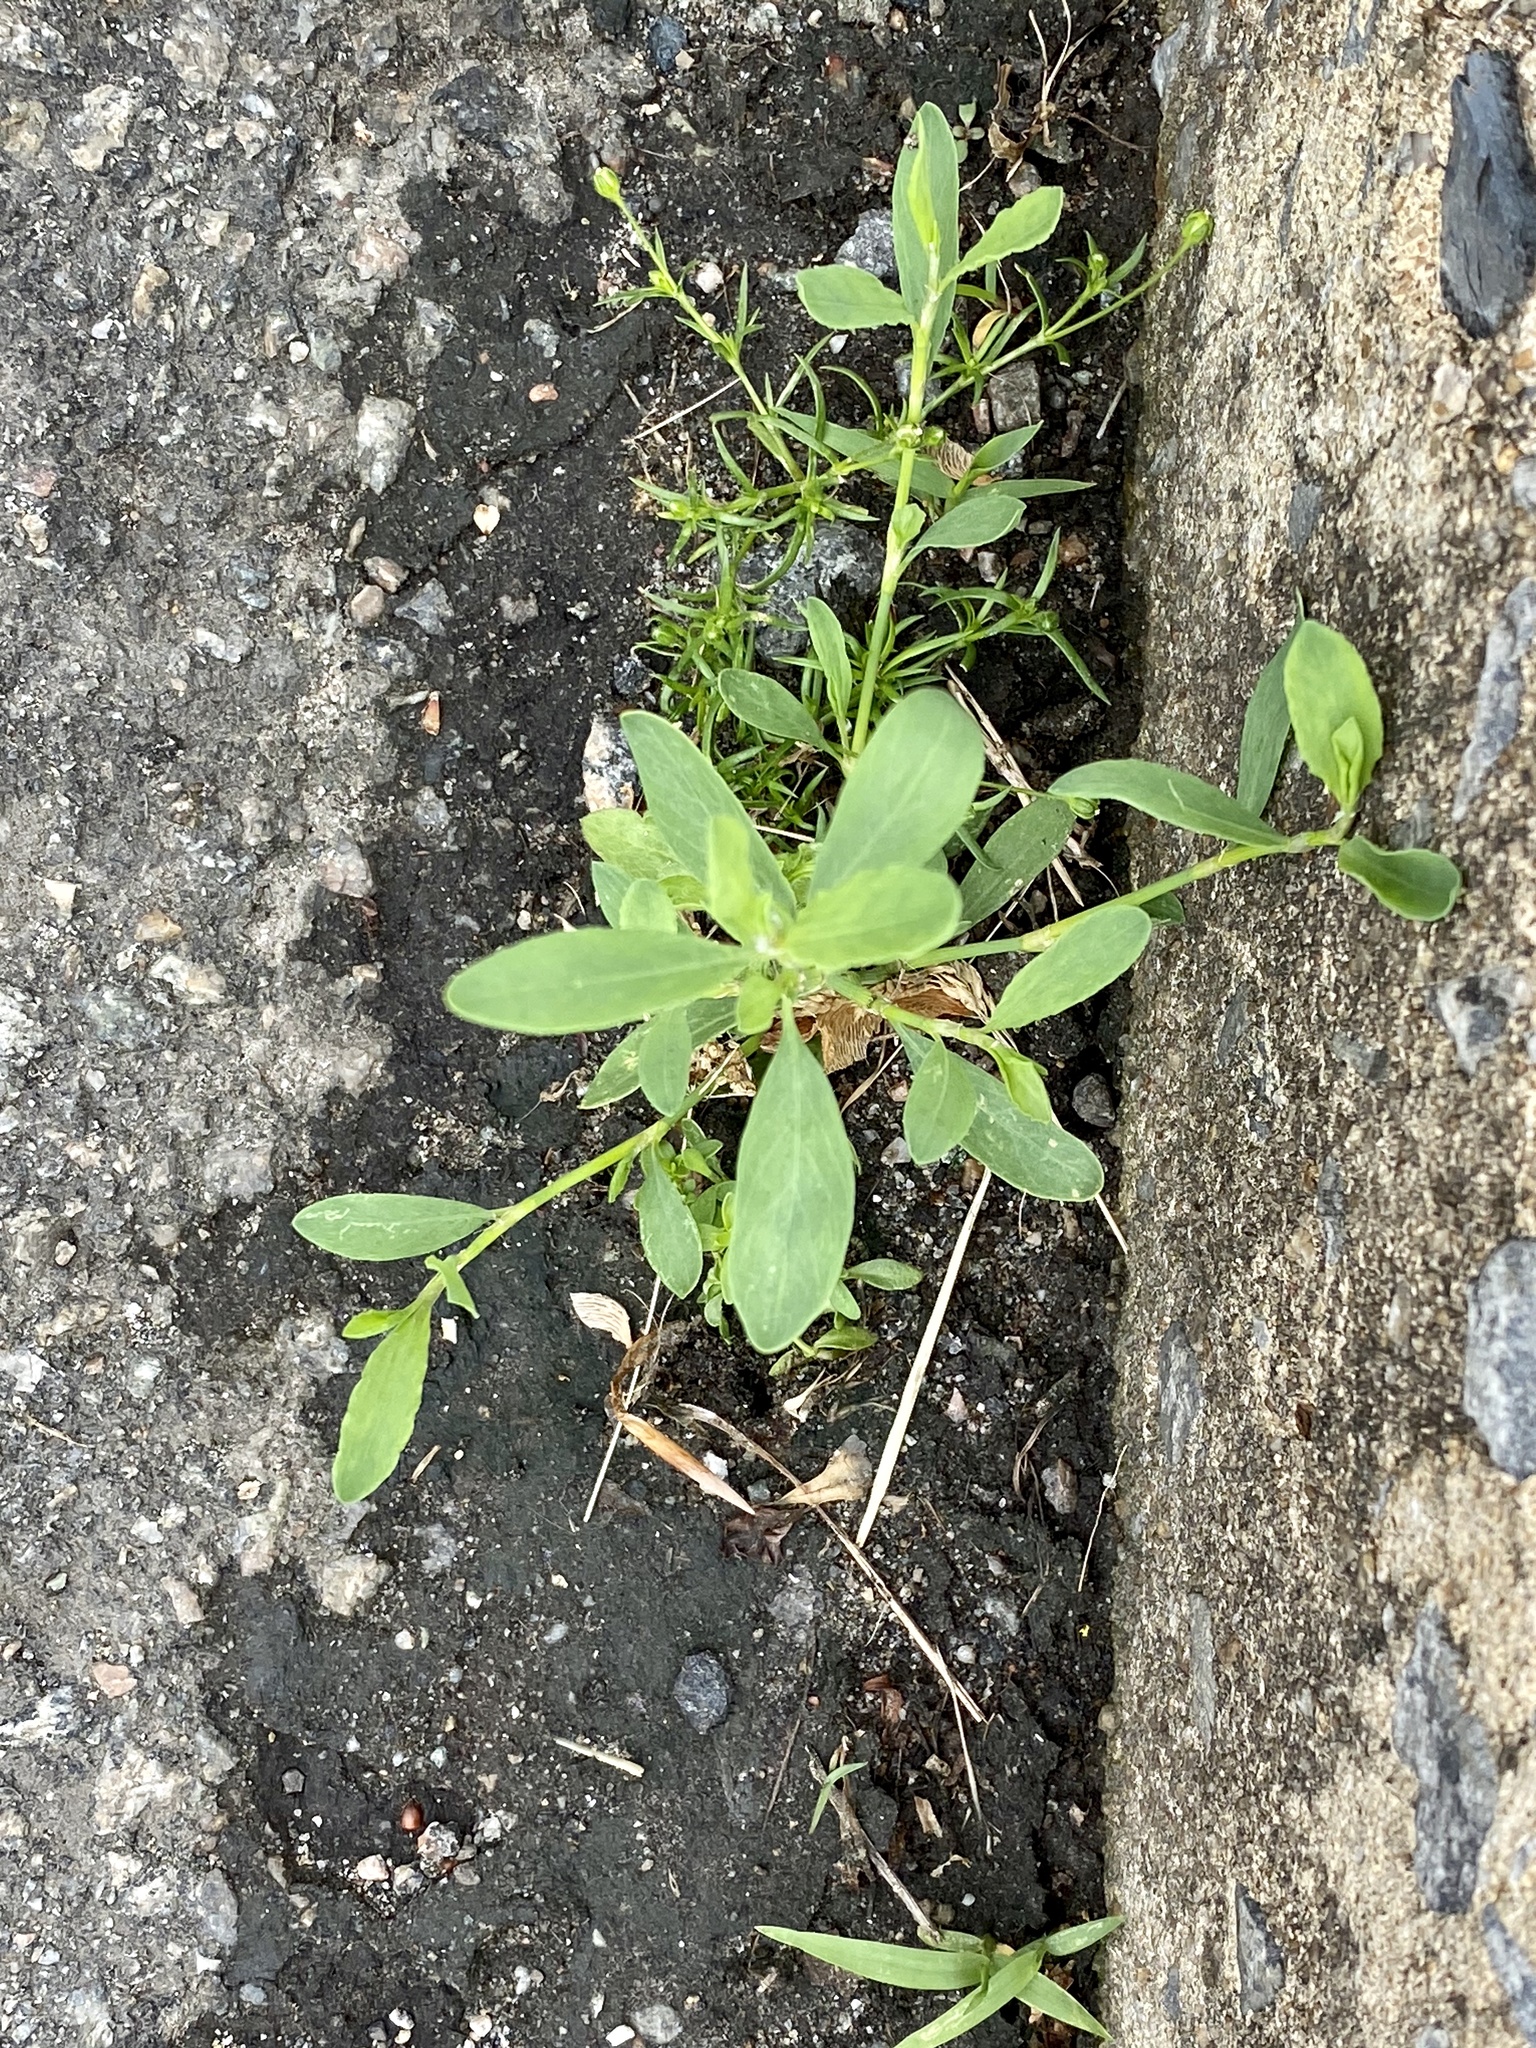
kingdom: Plantae
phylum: Tracheophyta
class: Magnoliopsida
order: Caryophyllales
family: Polygonaceae
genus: Polygonum
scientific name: Polygonum aviculare
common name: Prostrate knotweed
